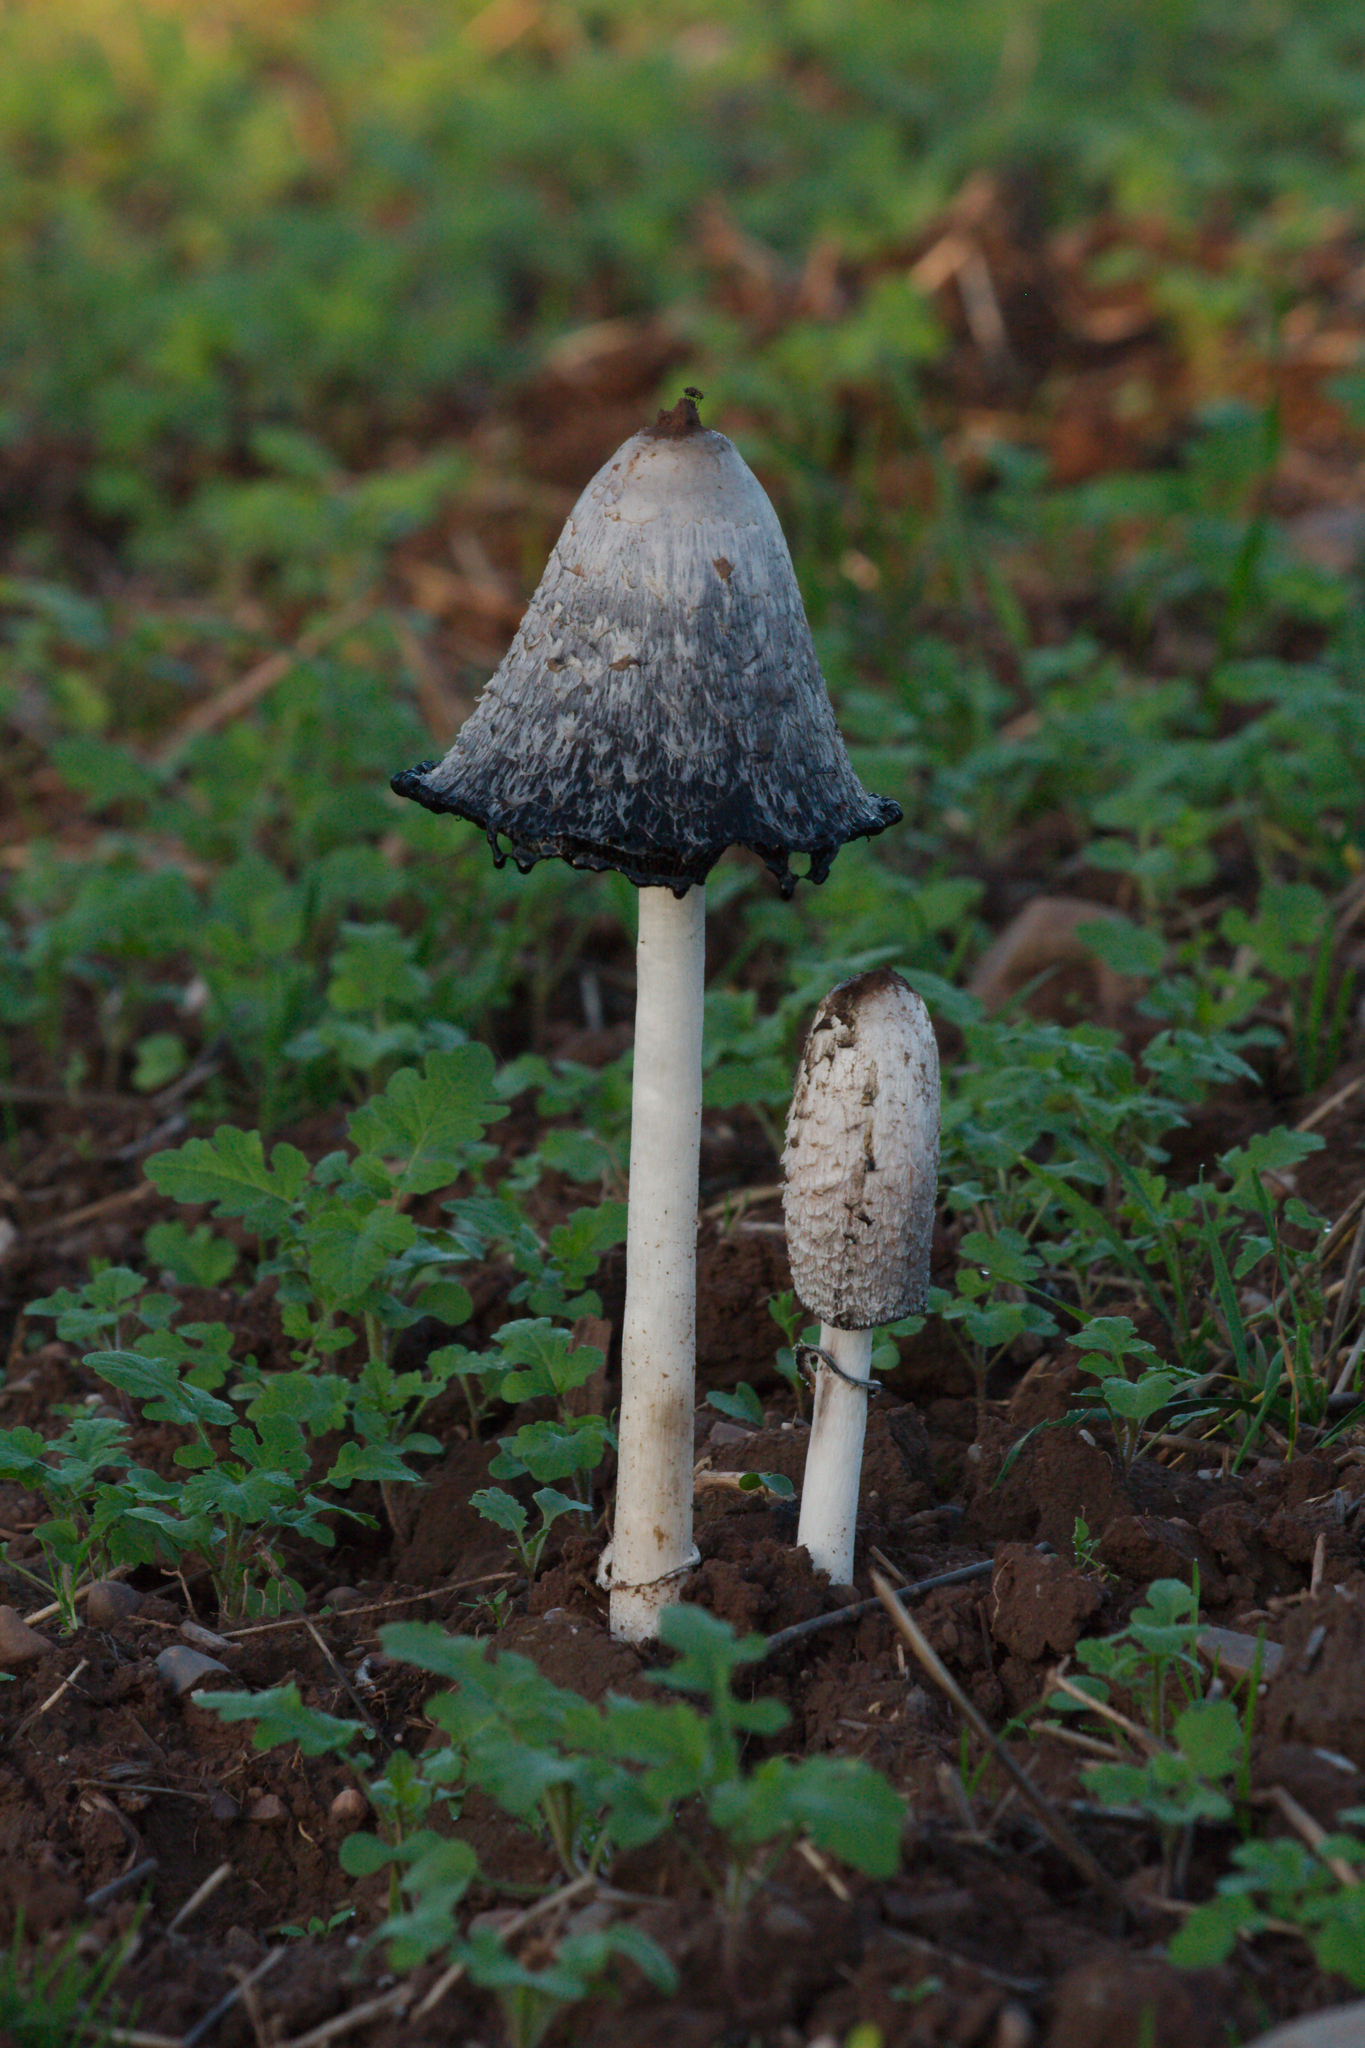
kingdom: Fungi
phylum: Basidiomycota
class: Agaricomycetes
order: Agaricales
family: Agaricaceae
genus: Coprinus
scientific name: Coprinus comatus
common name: Lawyer's wig
